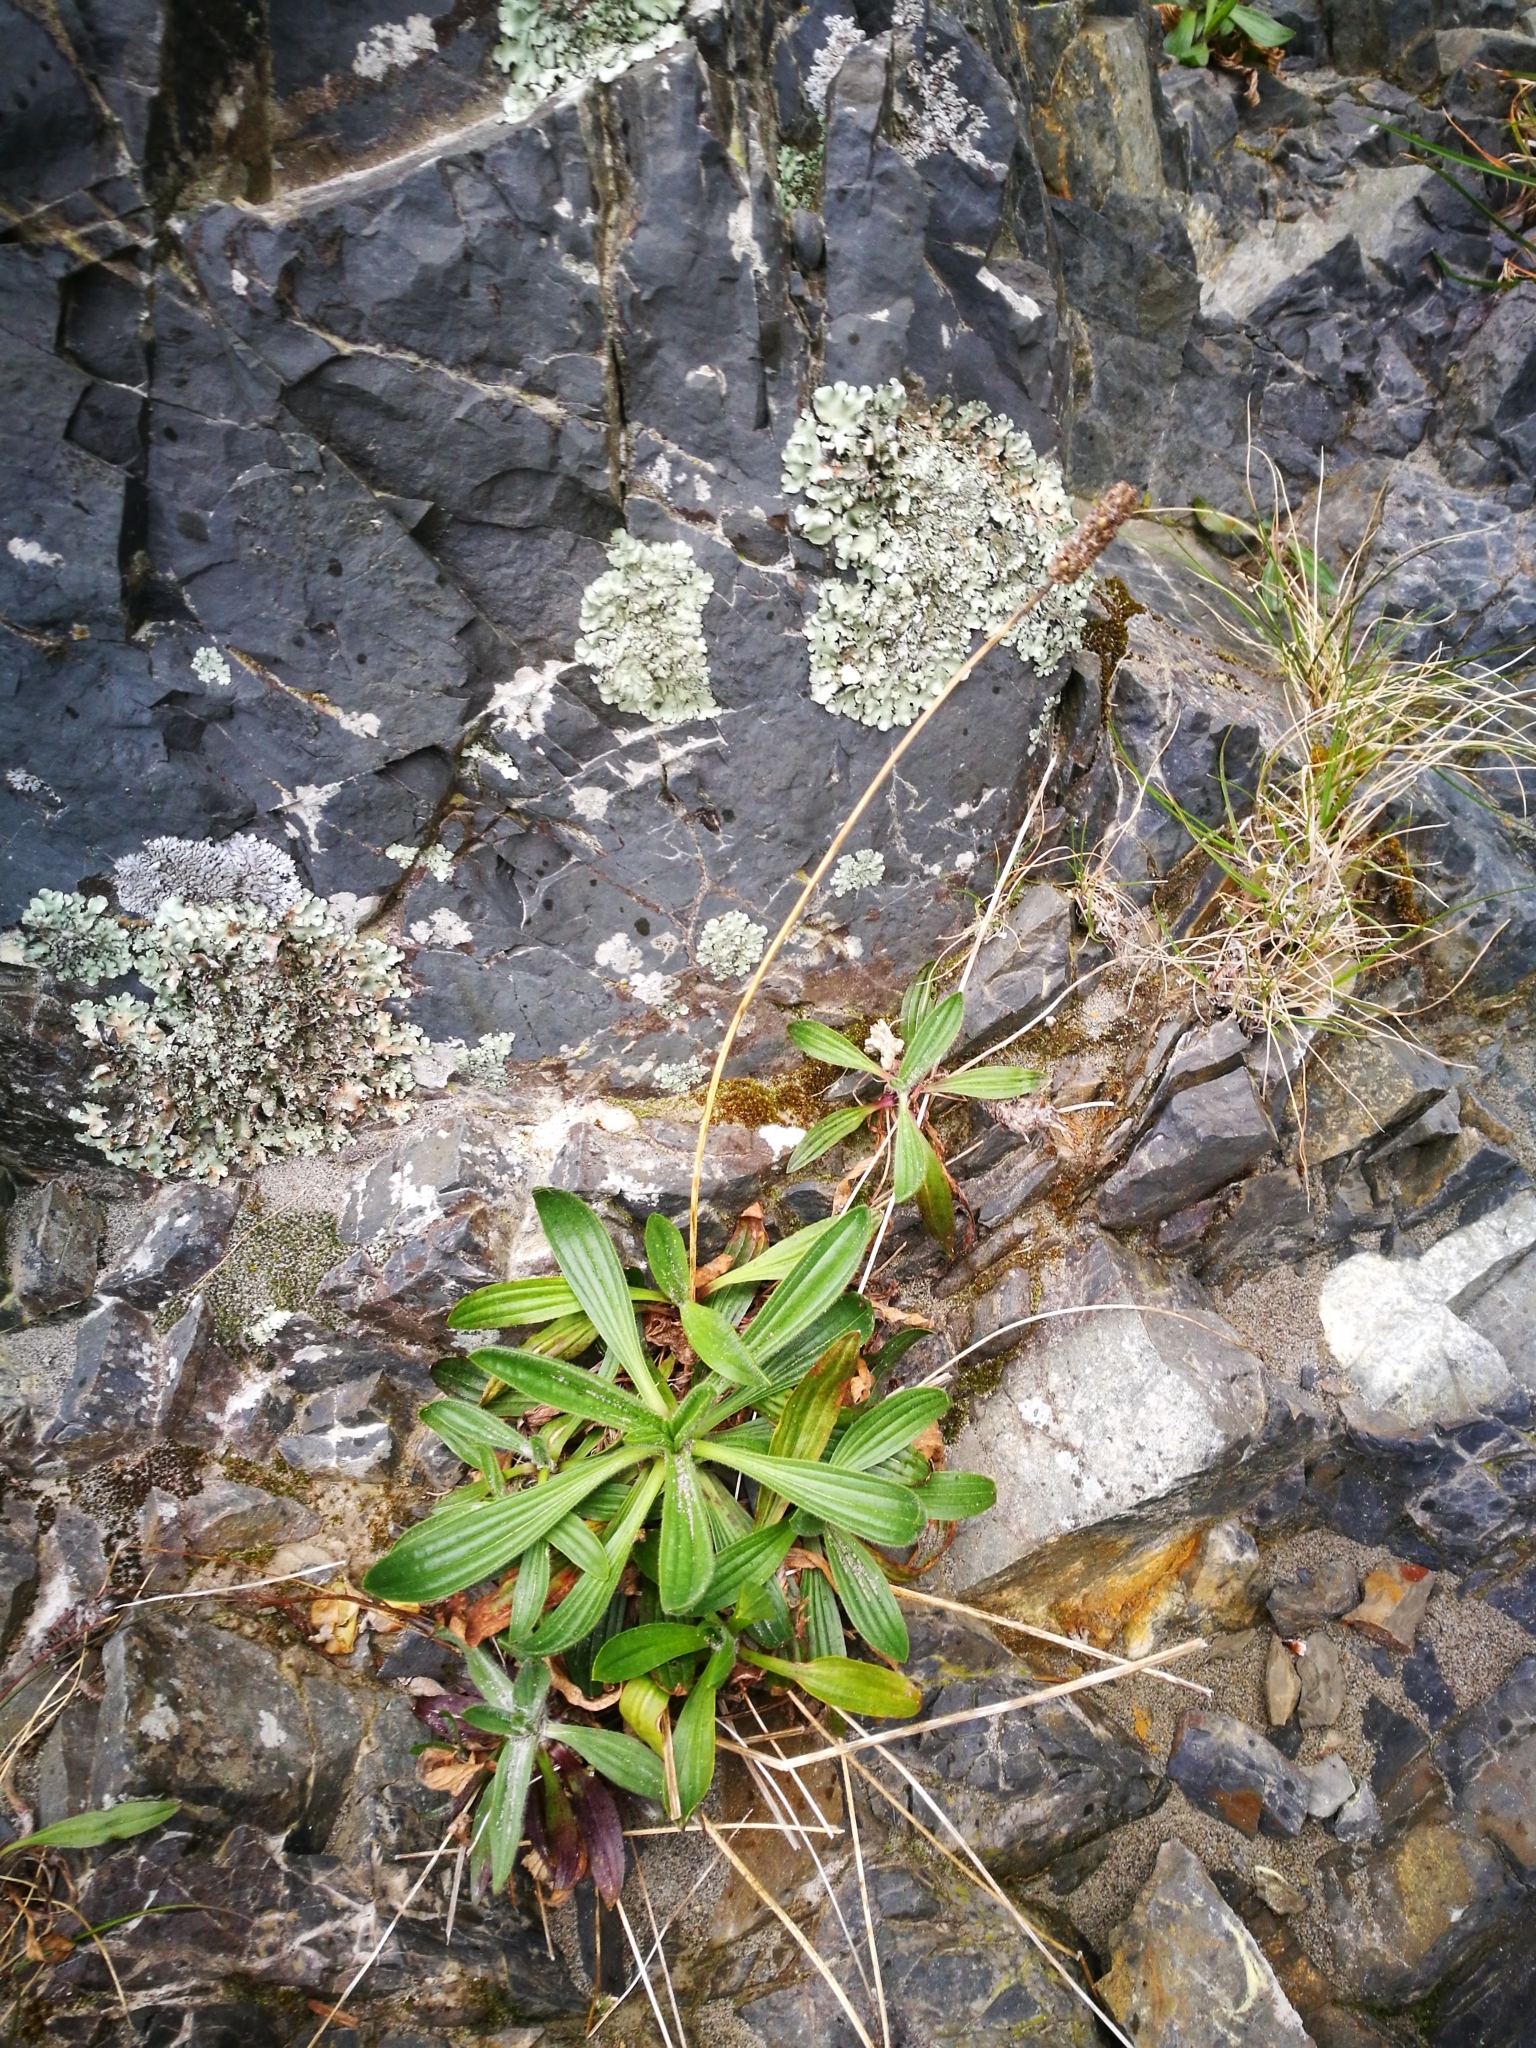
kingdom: Plantae
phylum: Tracheophyta
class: Magnoliopsida
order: Lamiales
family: Plantaginaceae
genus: Plantago
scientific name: Plantago lanceolata
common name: Ribwort plantain
